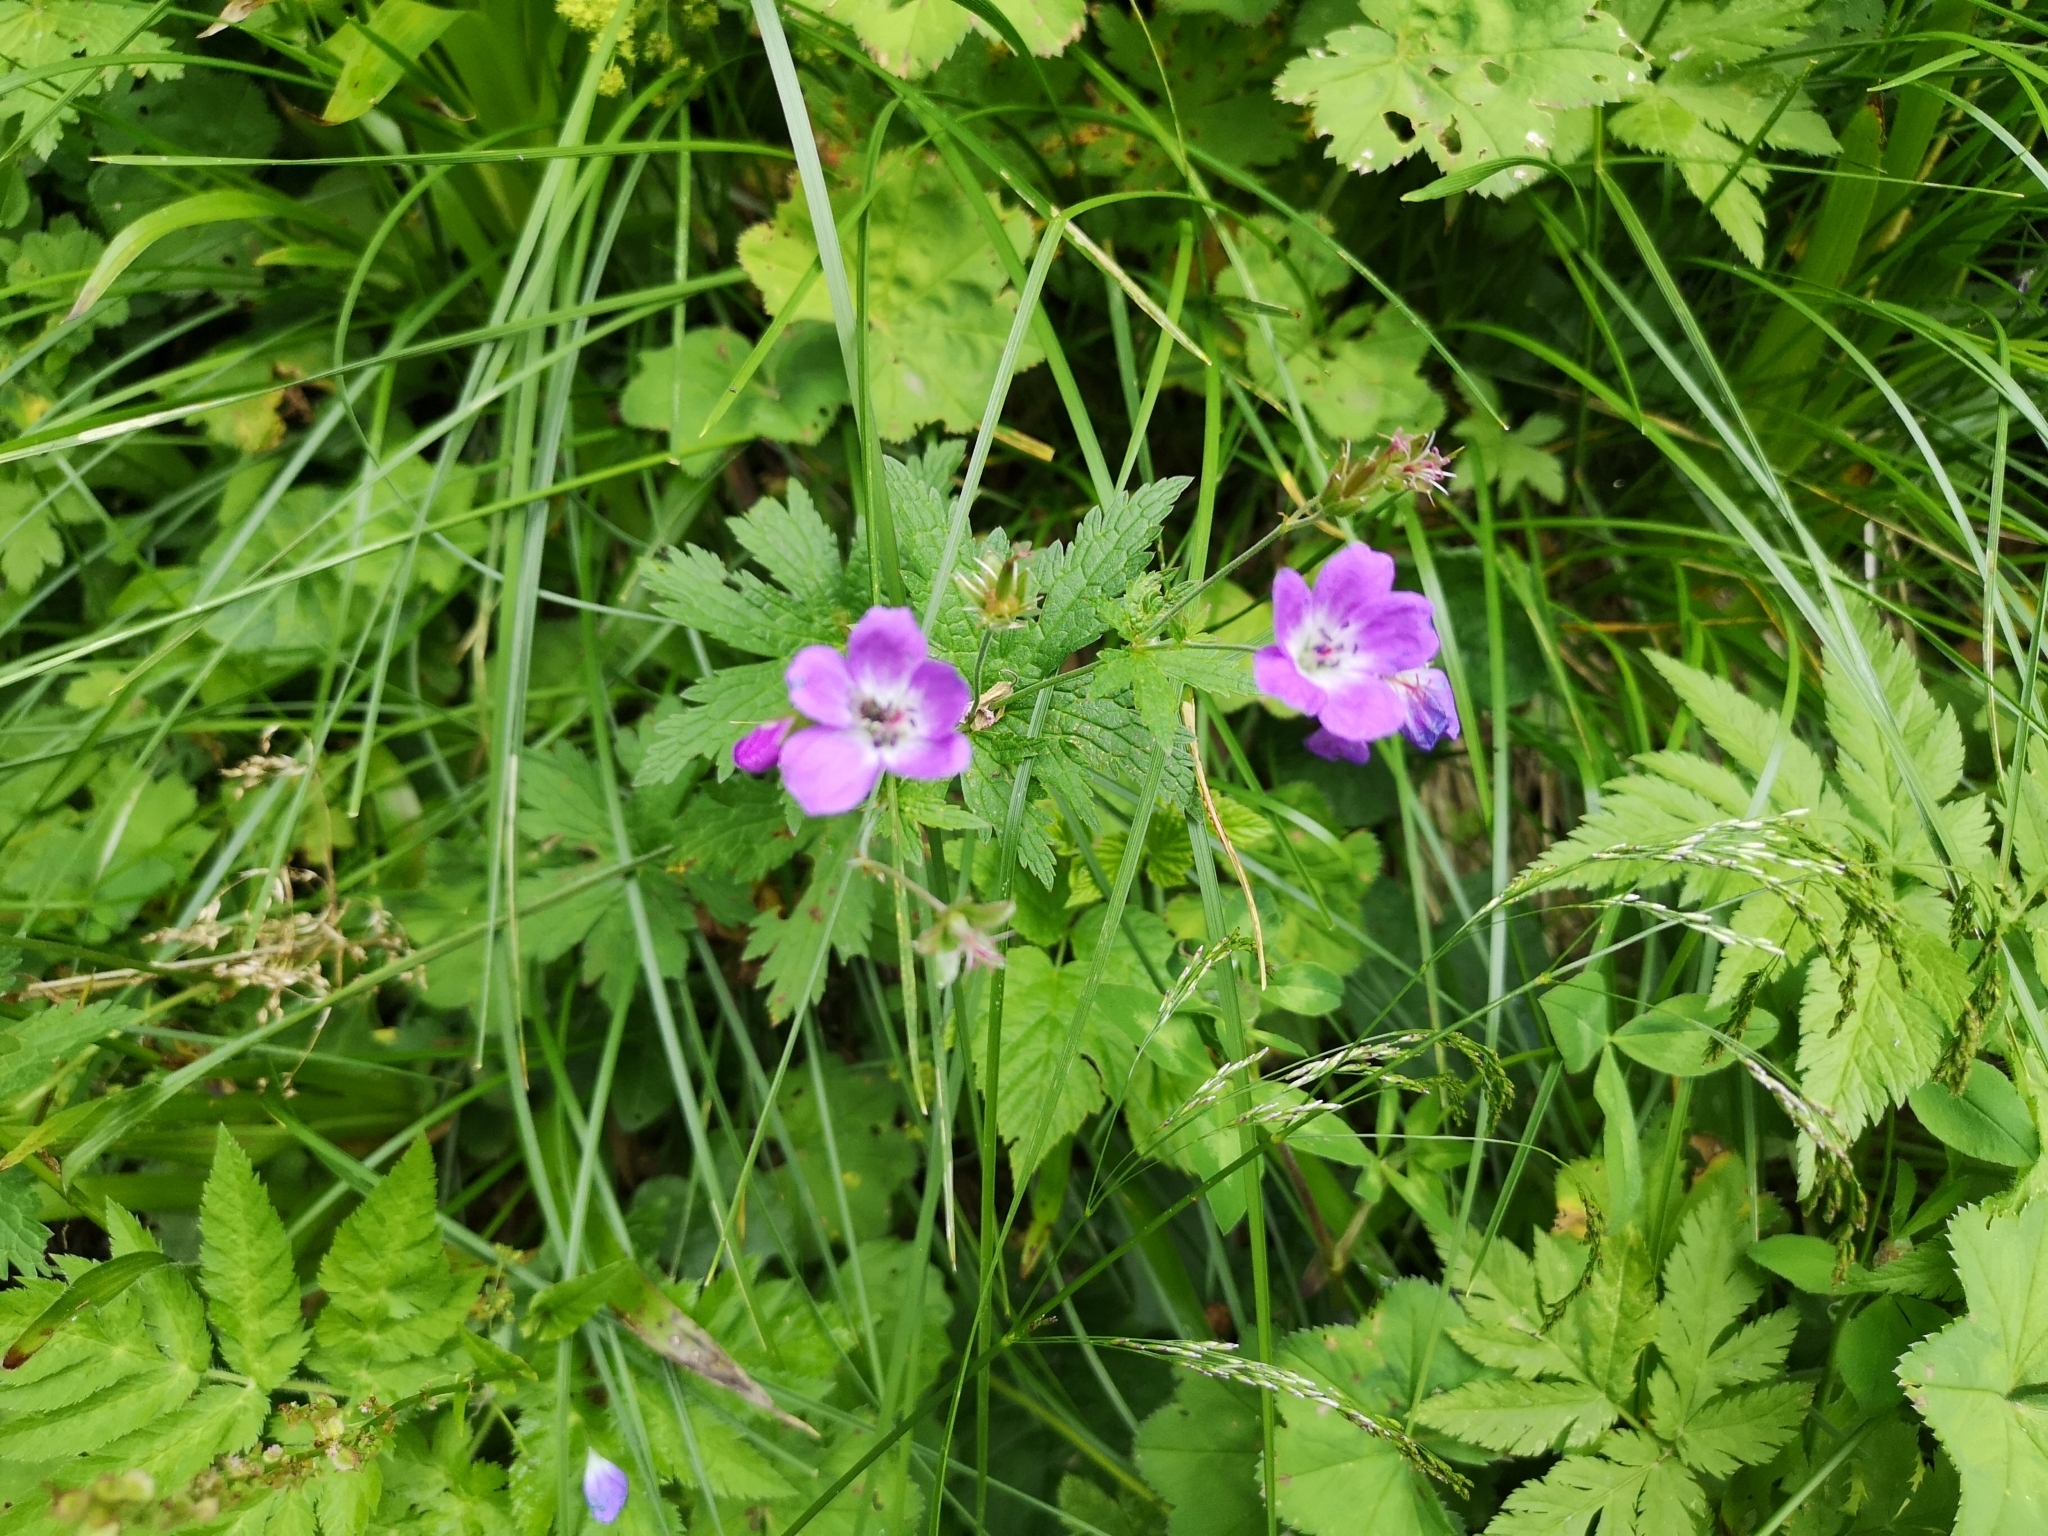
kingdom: Plantae
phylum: Tracheophyta
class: Magnoliopsida
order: Geraniales
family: Geraniaceae
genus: Geranium
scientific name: Geranium sylvaticum
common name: Wood crane's-bill
